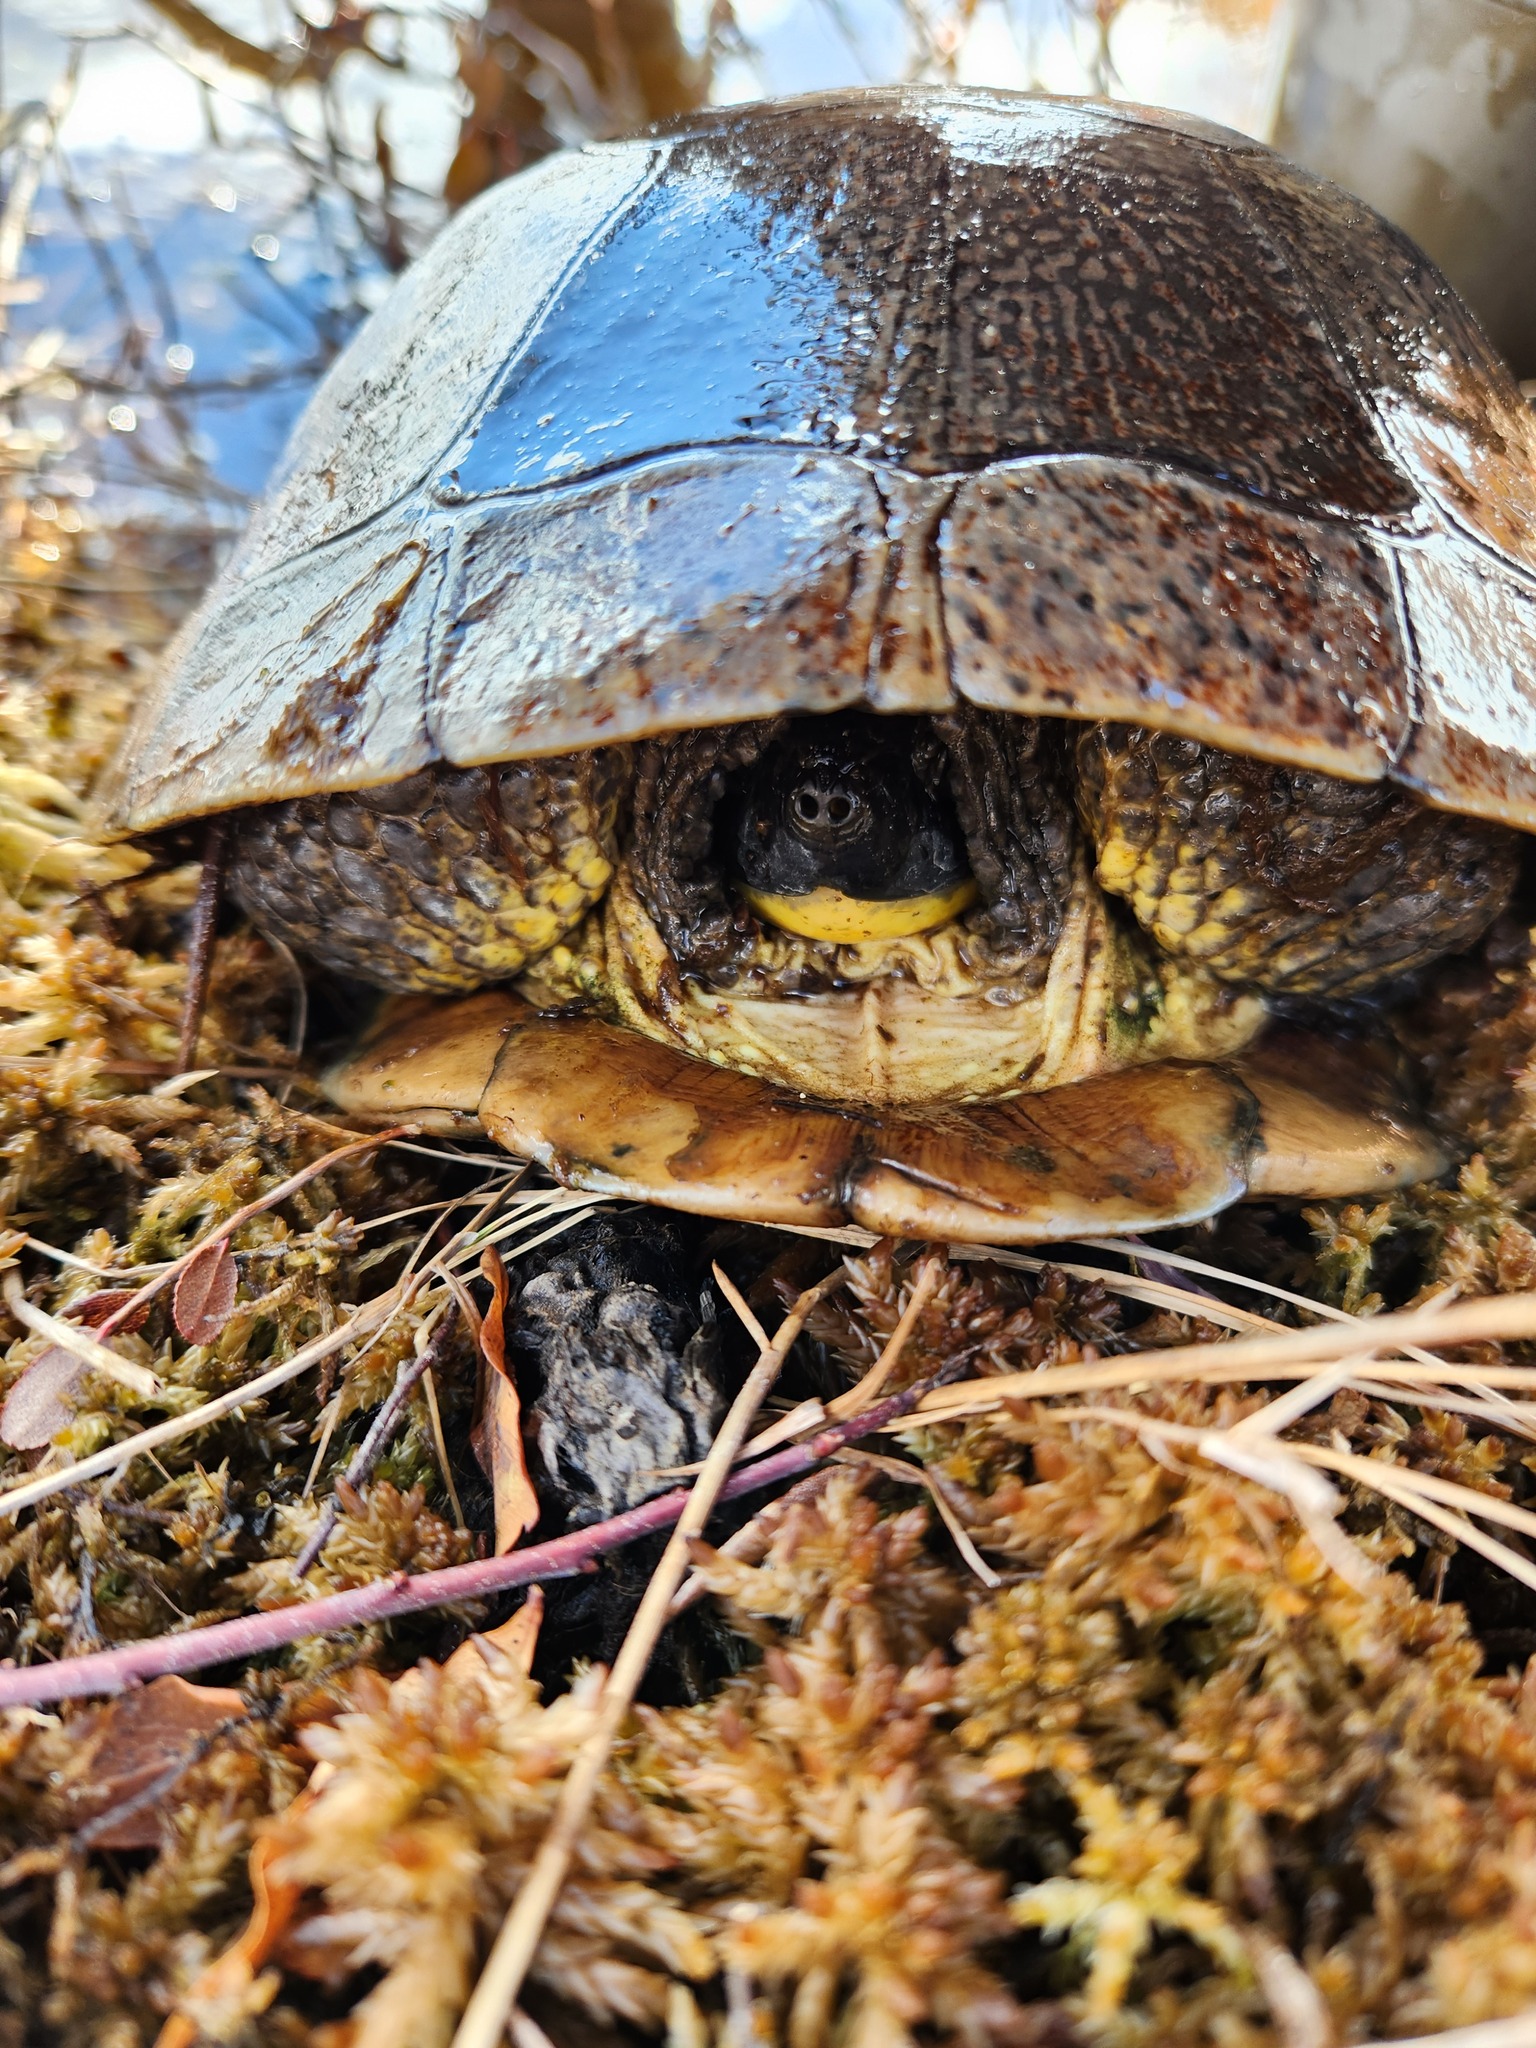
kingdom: Animalia
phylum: Chordata
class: Testudines
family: Emydidae
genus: Emys
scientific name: Emys blandingii
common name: Blanding's turtle
